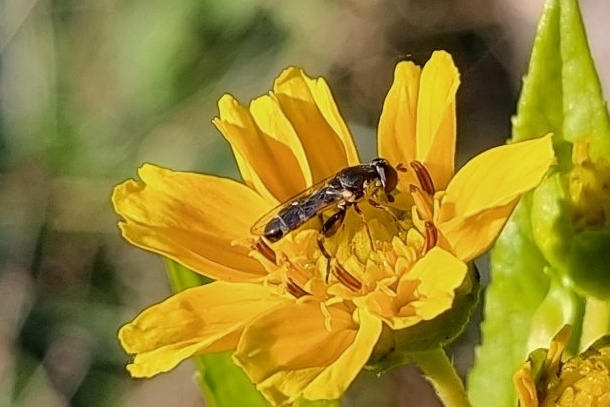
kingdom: Animalia
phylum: Arthropoda
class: Insecta
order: Diptera
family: Syrphidae
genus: Syritta
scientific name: Syritta pipiens
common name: Hover fly
